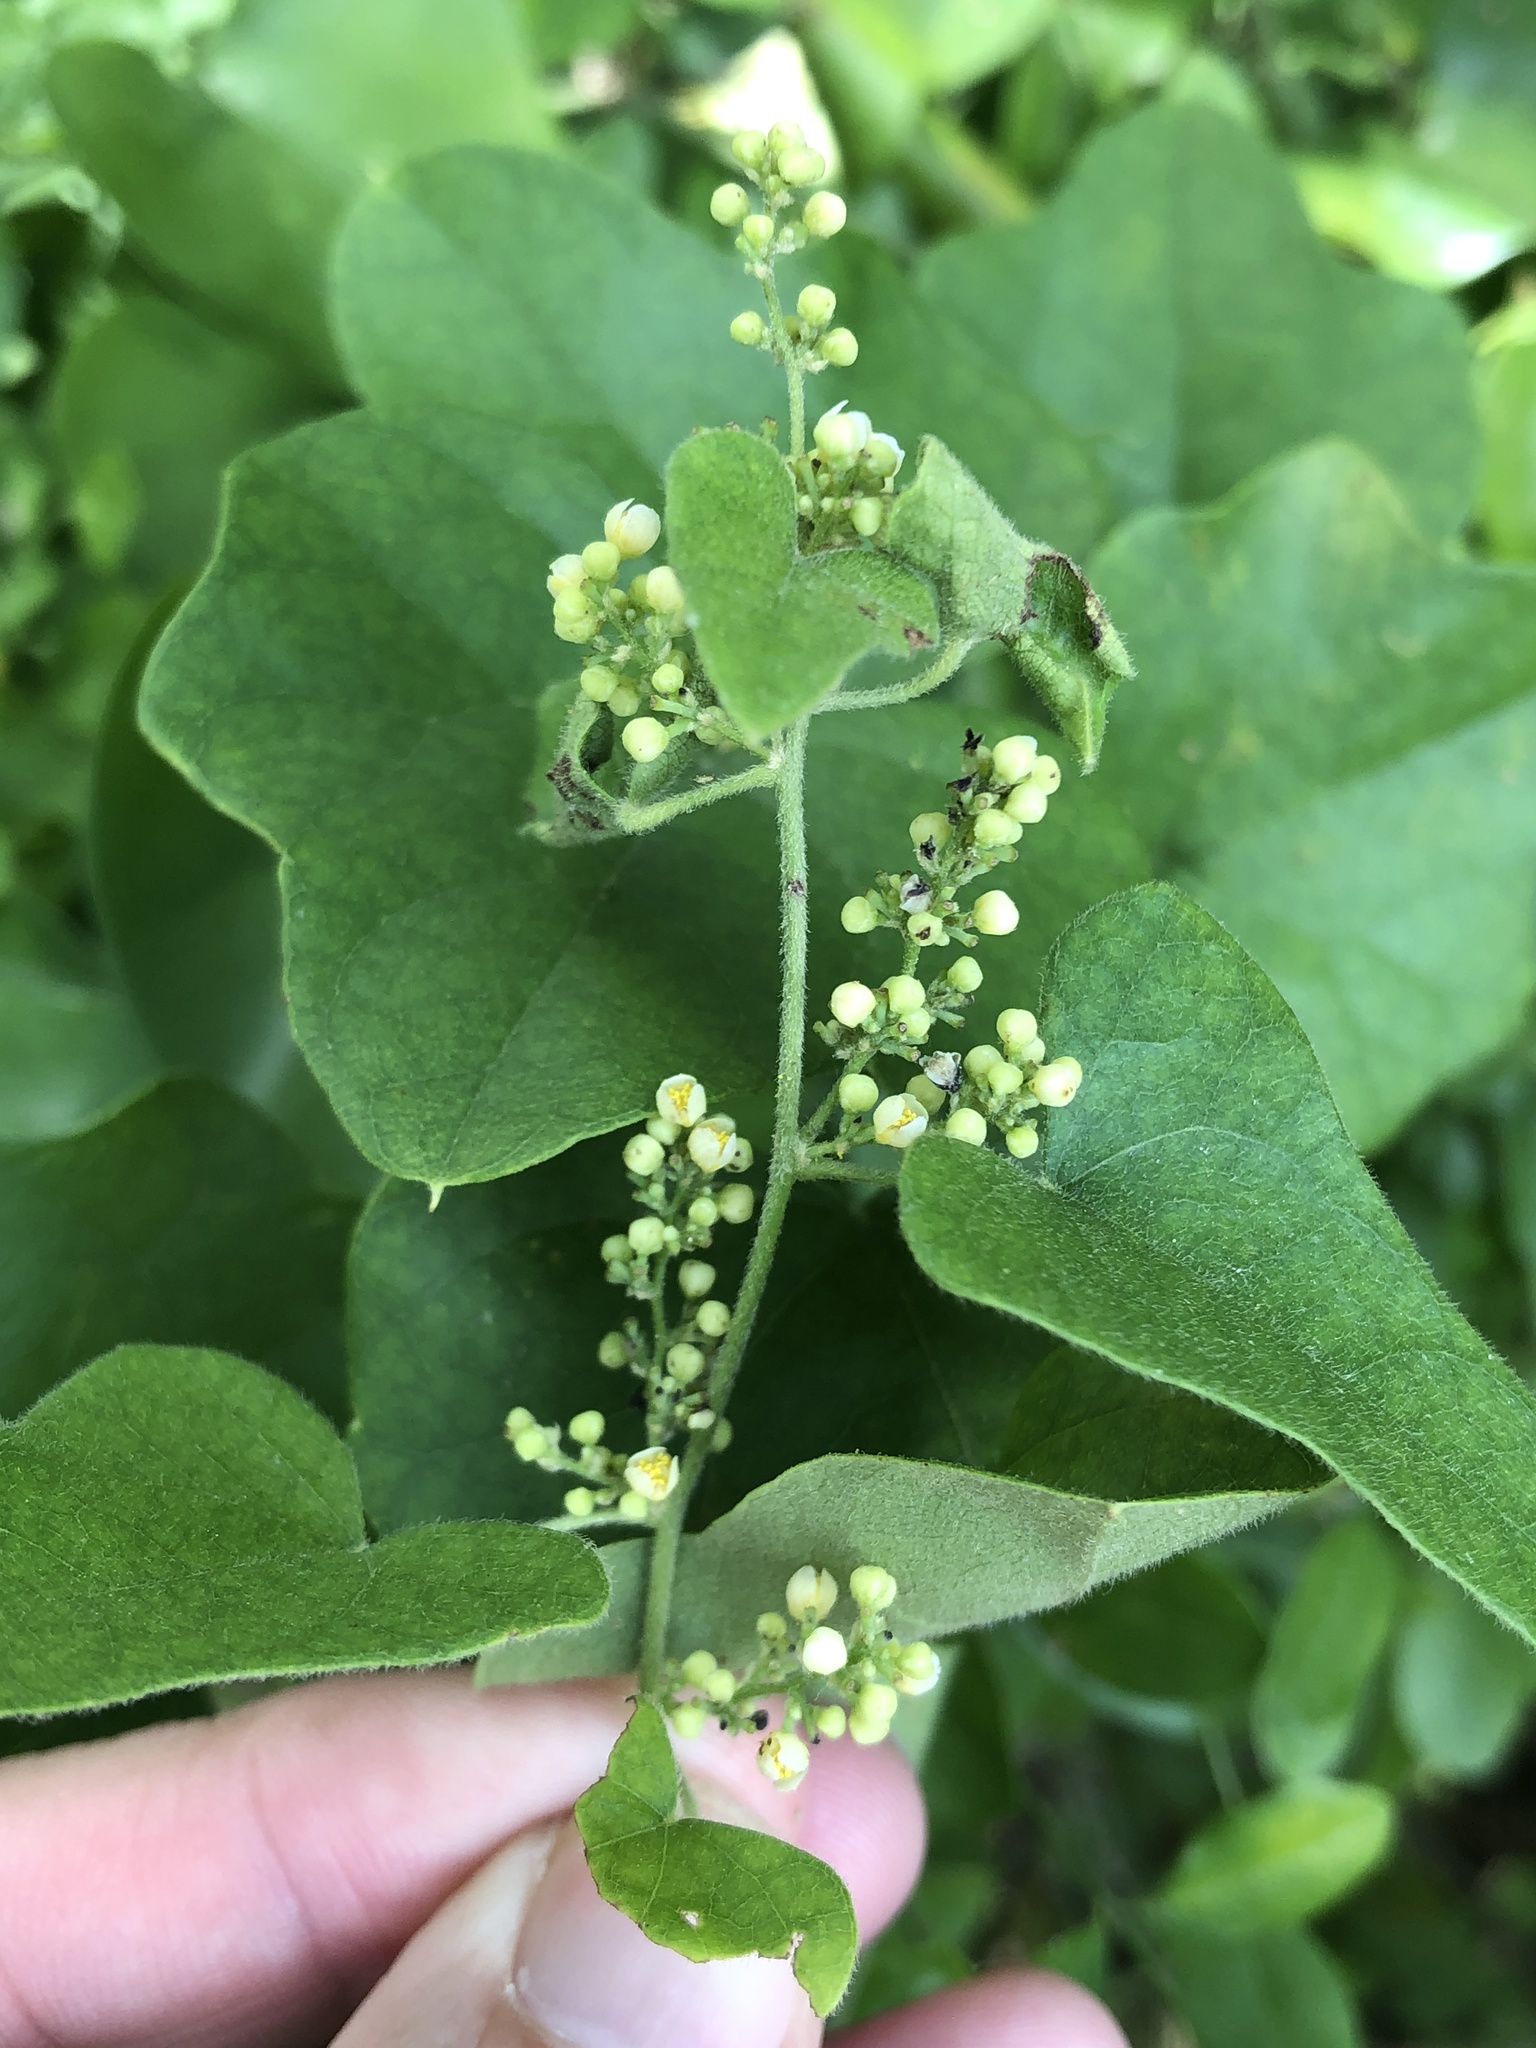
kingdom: Plantae
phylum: Tracheophyta
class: Magnoliopsida
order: Ranunculales
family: Menispermaceae
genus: Cocculus
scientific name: Cocculus carolinus
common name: Carolina moonseed
